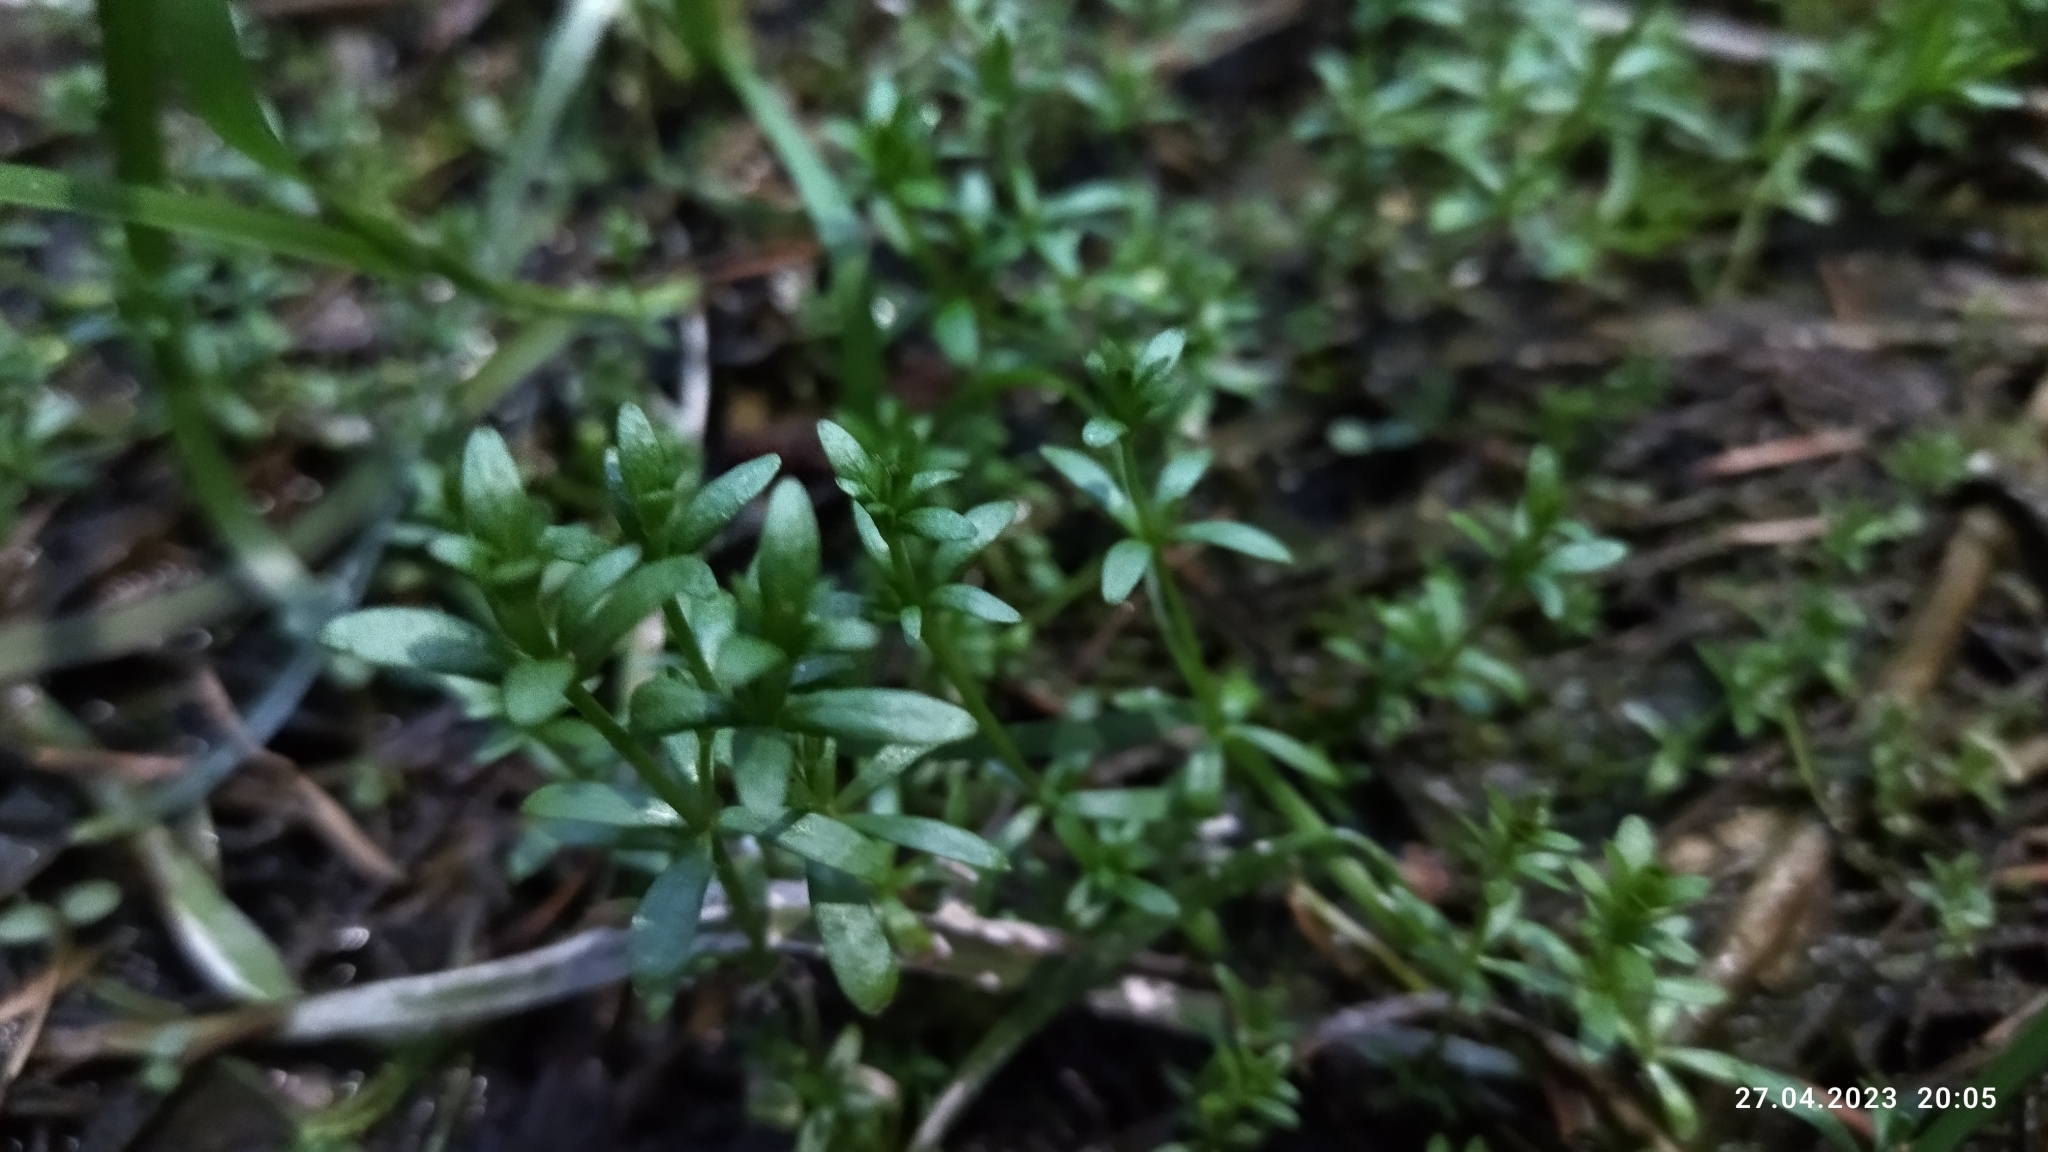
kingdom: Plantae
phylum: Tracheophyta
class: Magnoliopsida
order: Gentianales
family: Rubiaceae
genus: Galium
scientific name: Galium palustre
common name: Common marsh-bedstraw
